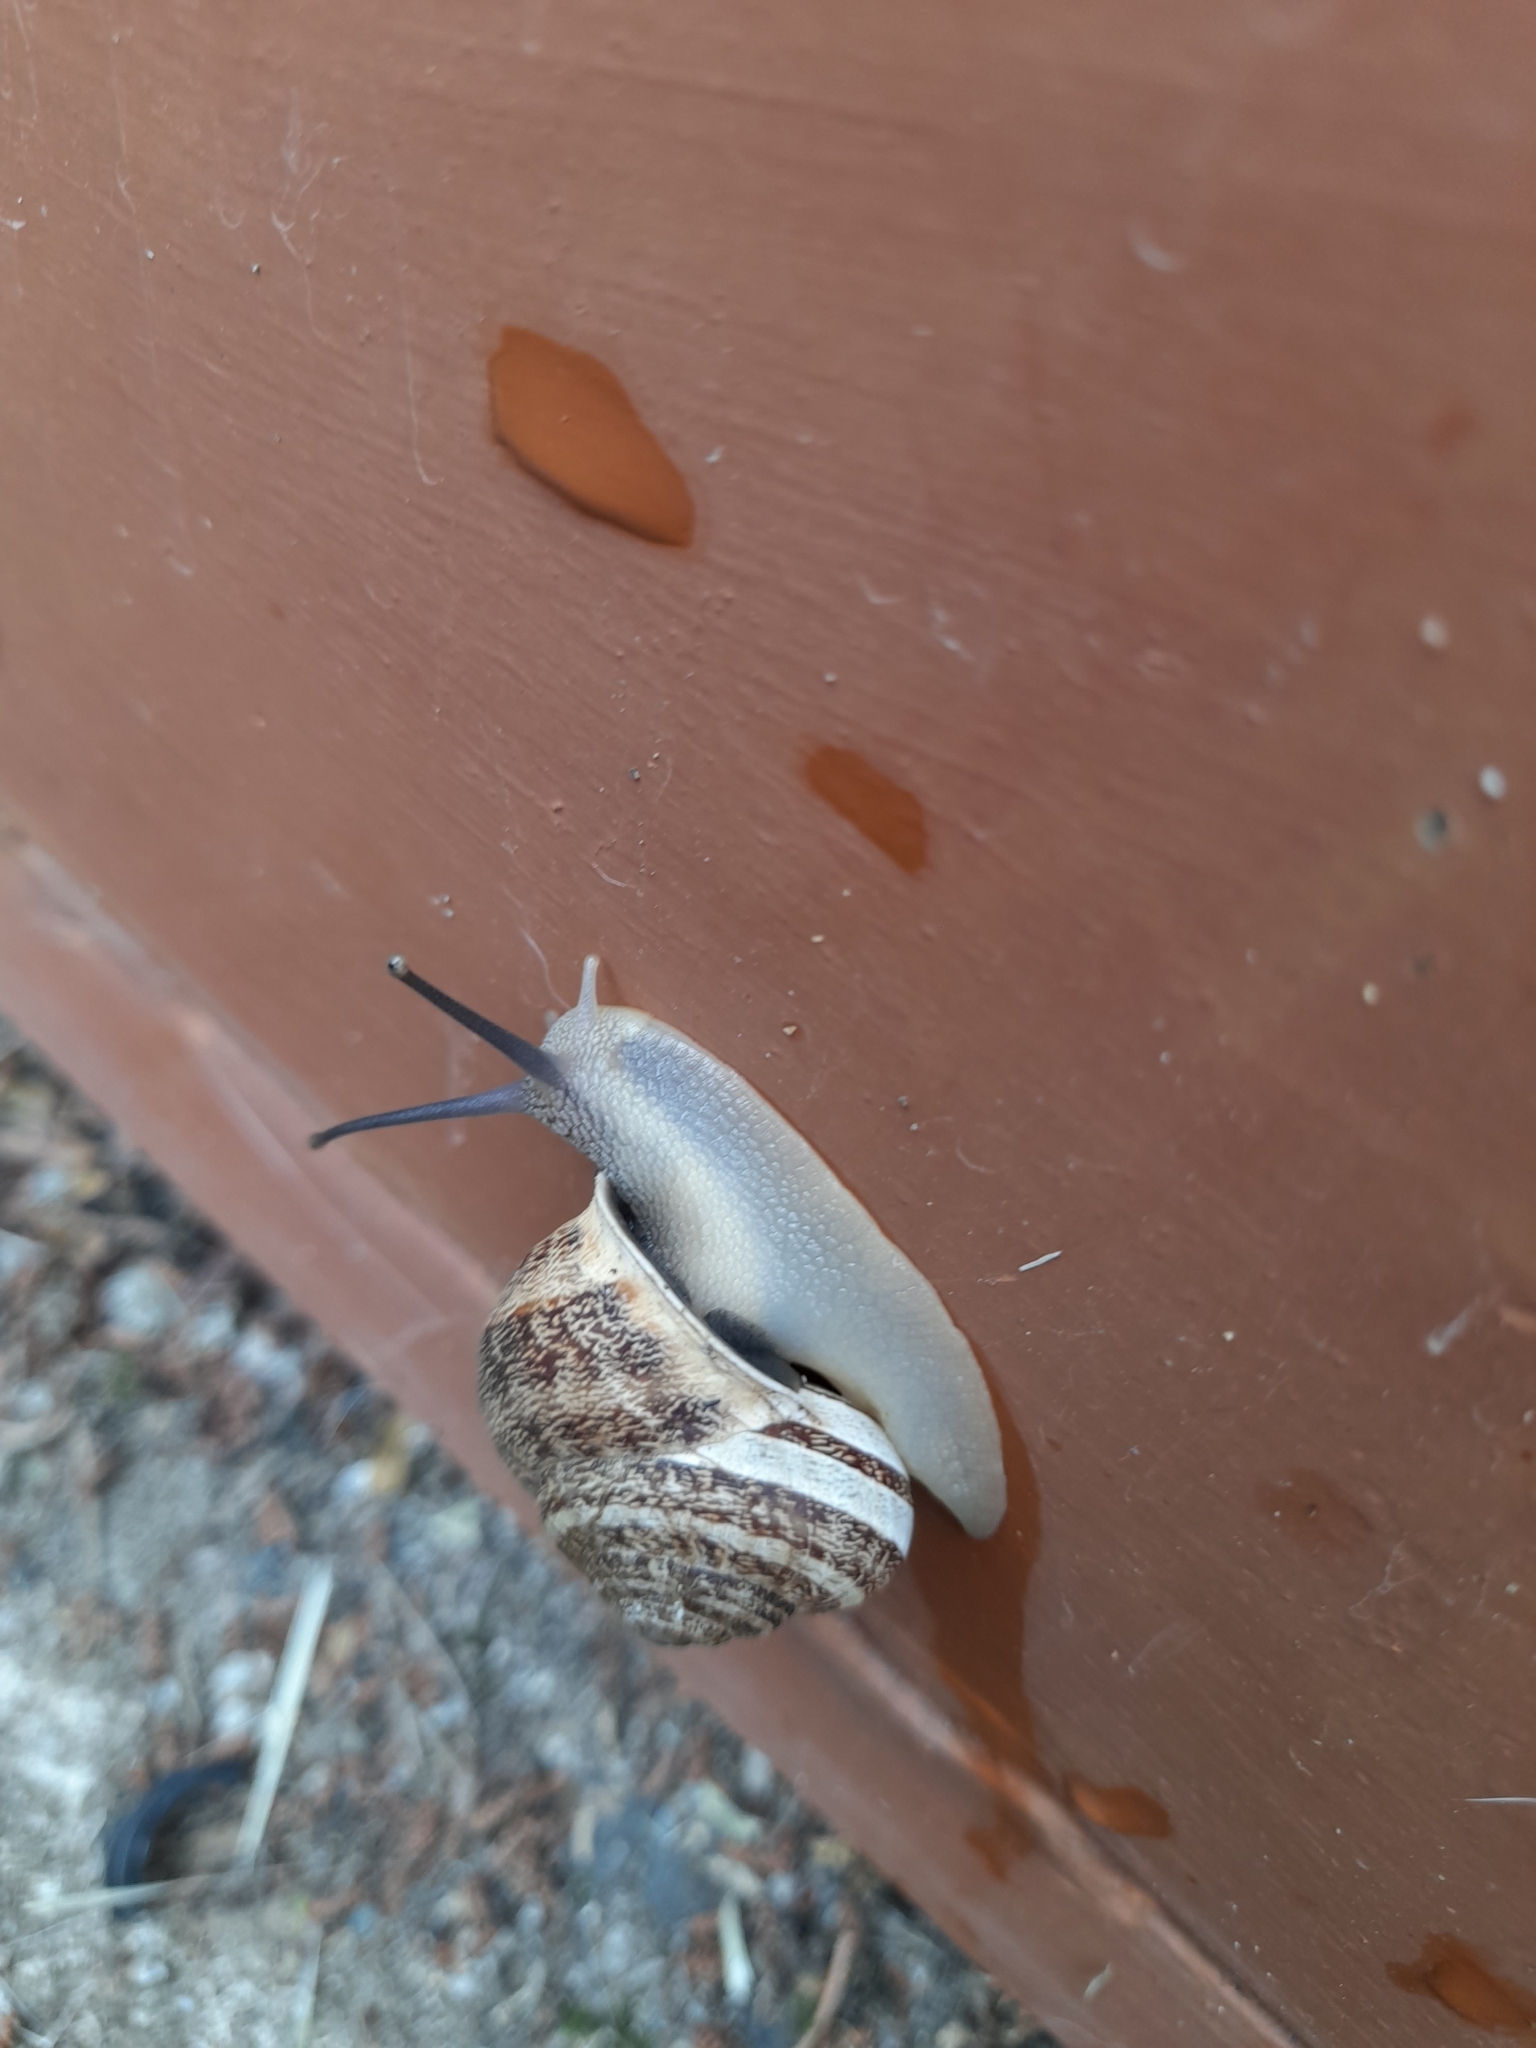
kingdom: Animalia
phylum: Mollusca
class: Gastropoda
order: Stylommatophora
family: Helicidae
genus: Cornu
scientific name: Cornu aspersum
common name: Brown garden snail
